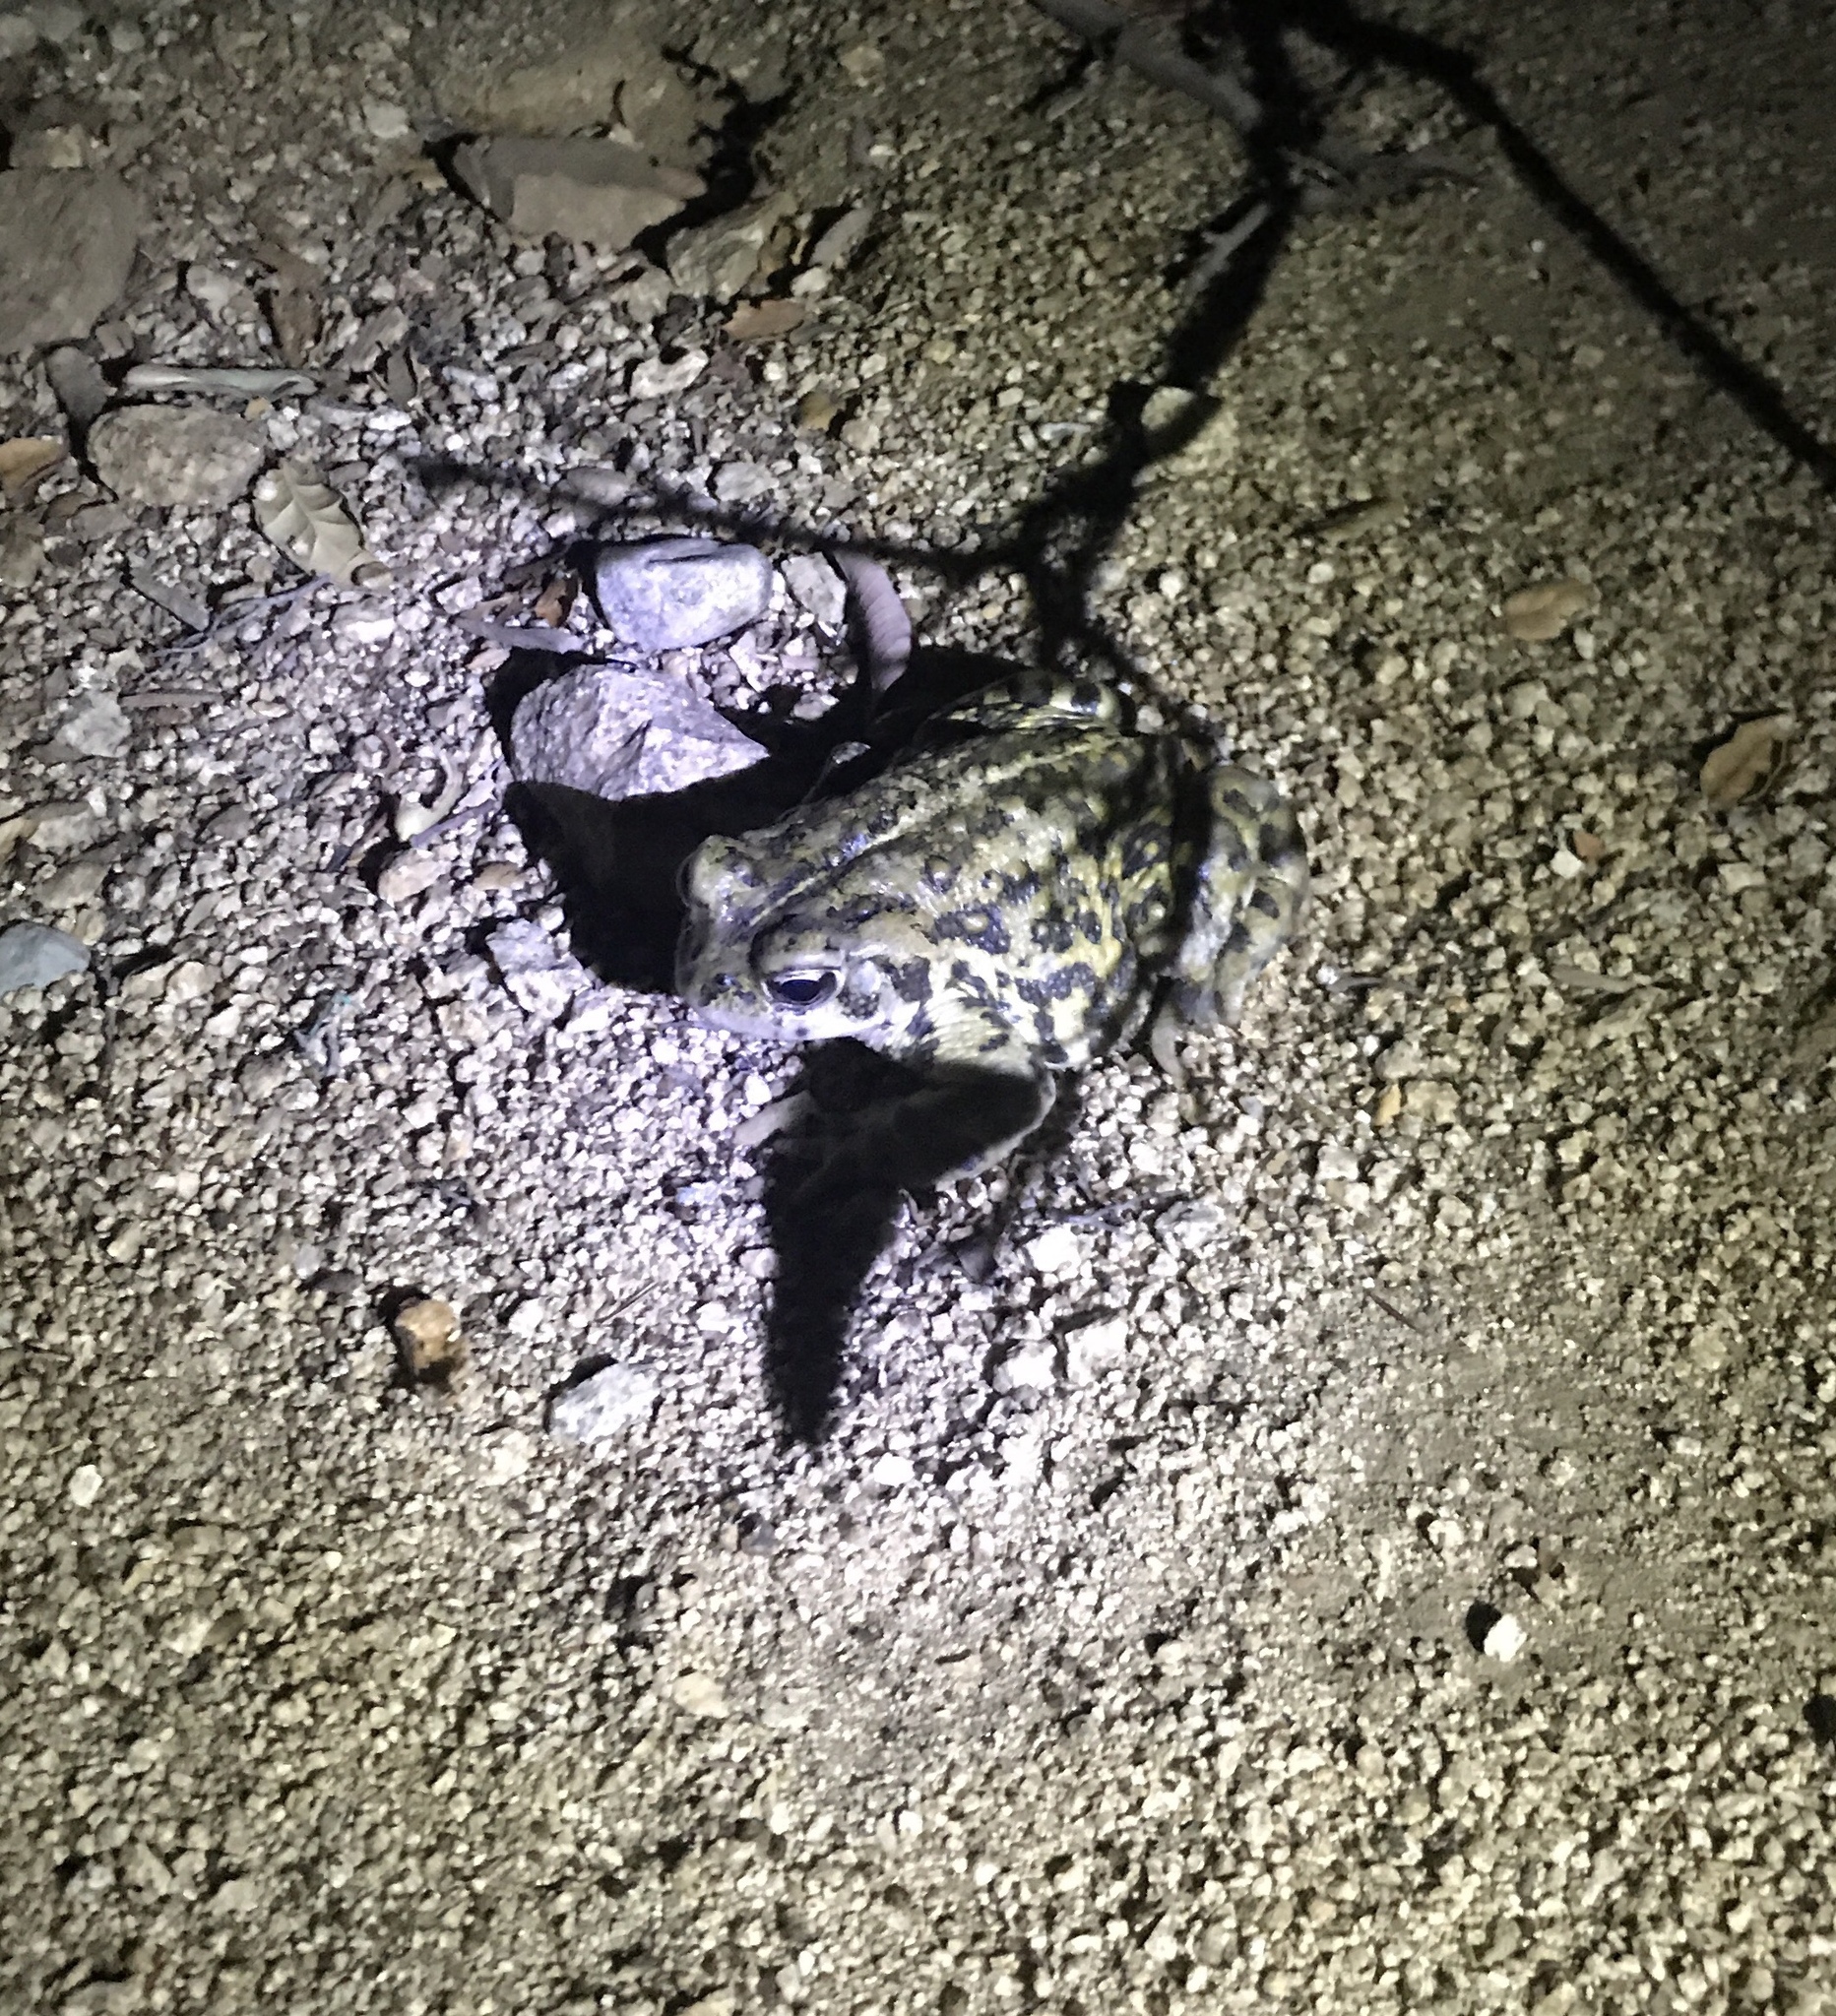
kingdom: Animalia
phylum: Chordata
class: Amphibia
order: Anura
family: Bufonidae
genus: Anaxyrus
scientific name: Anaxyrus boreas
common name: Western toad
